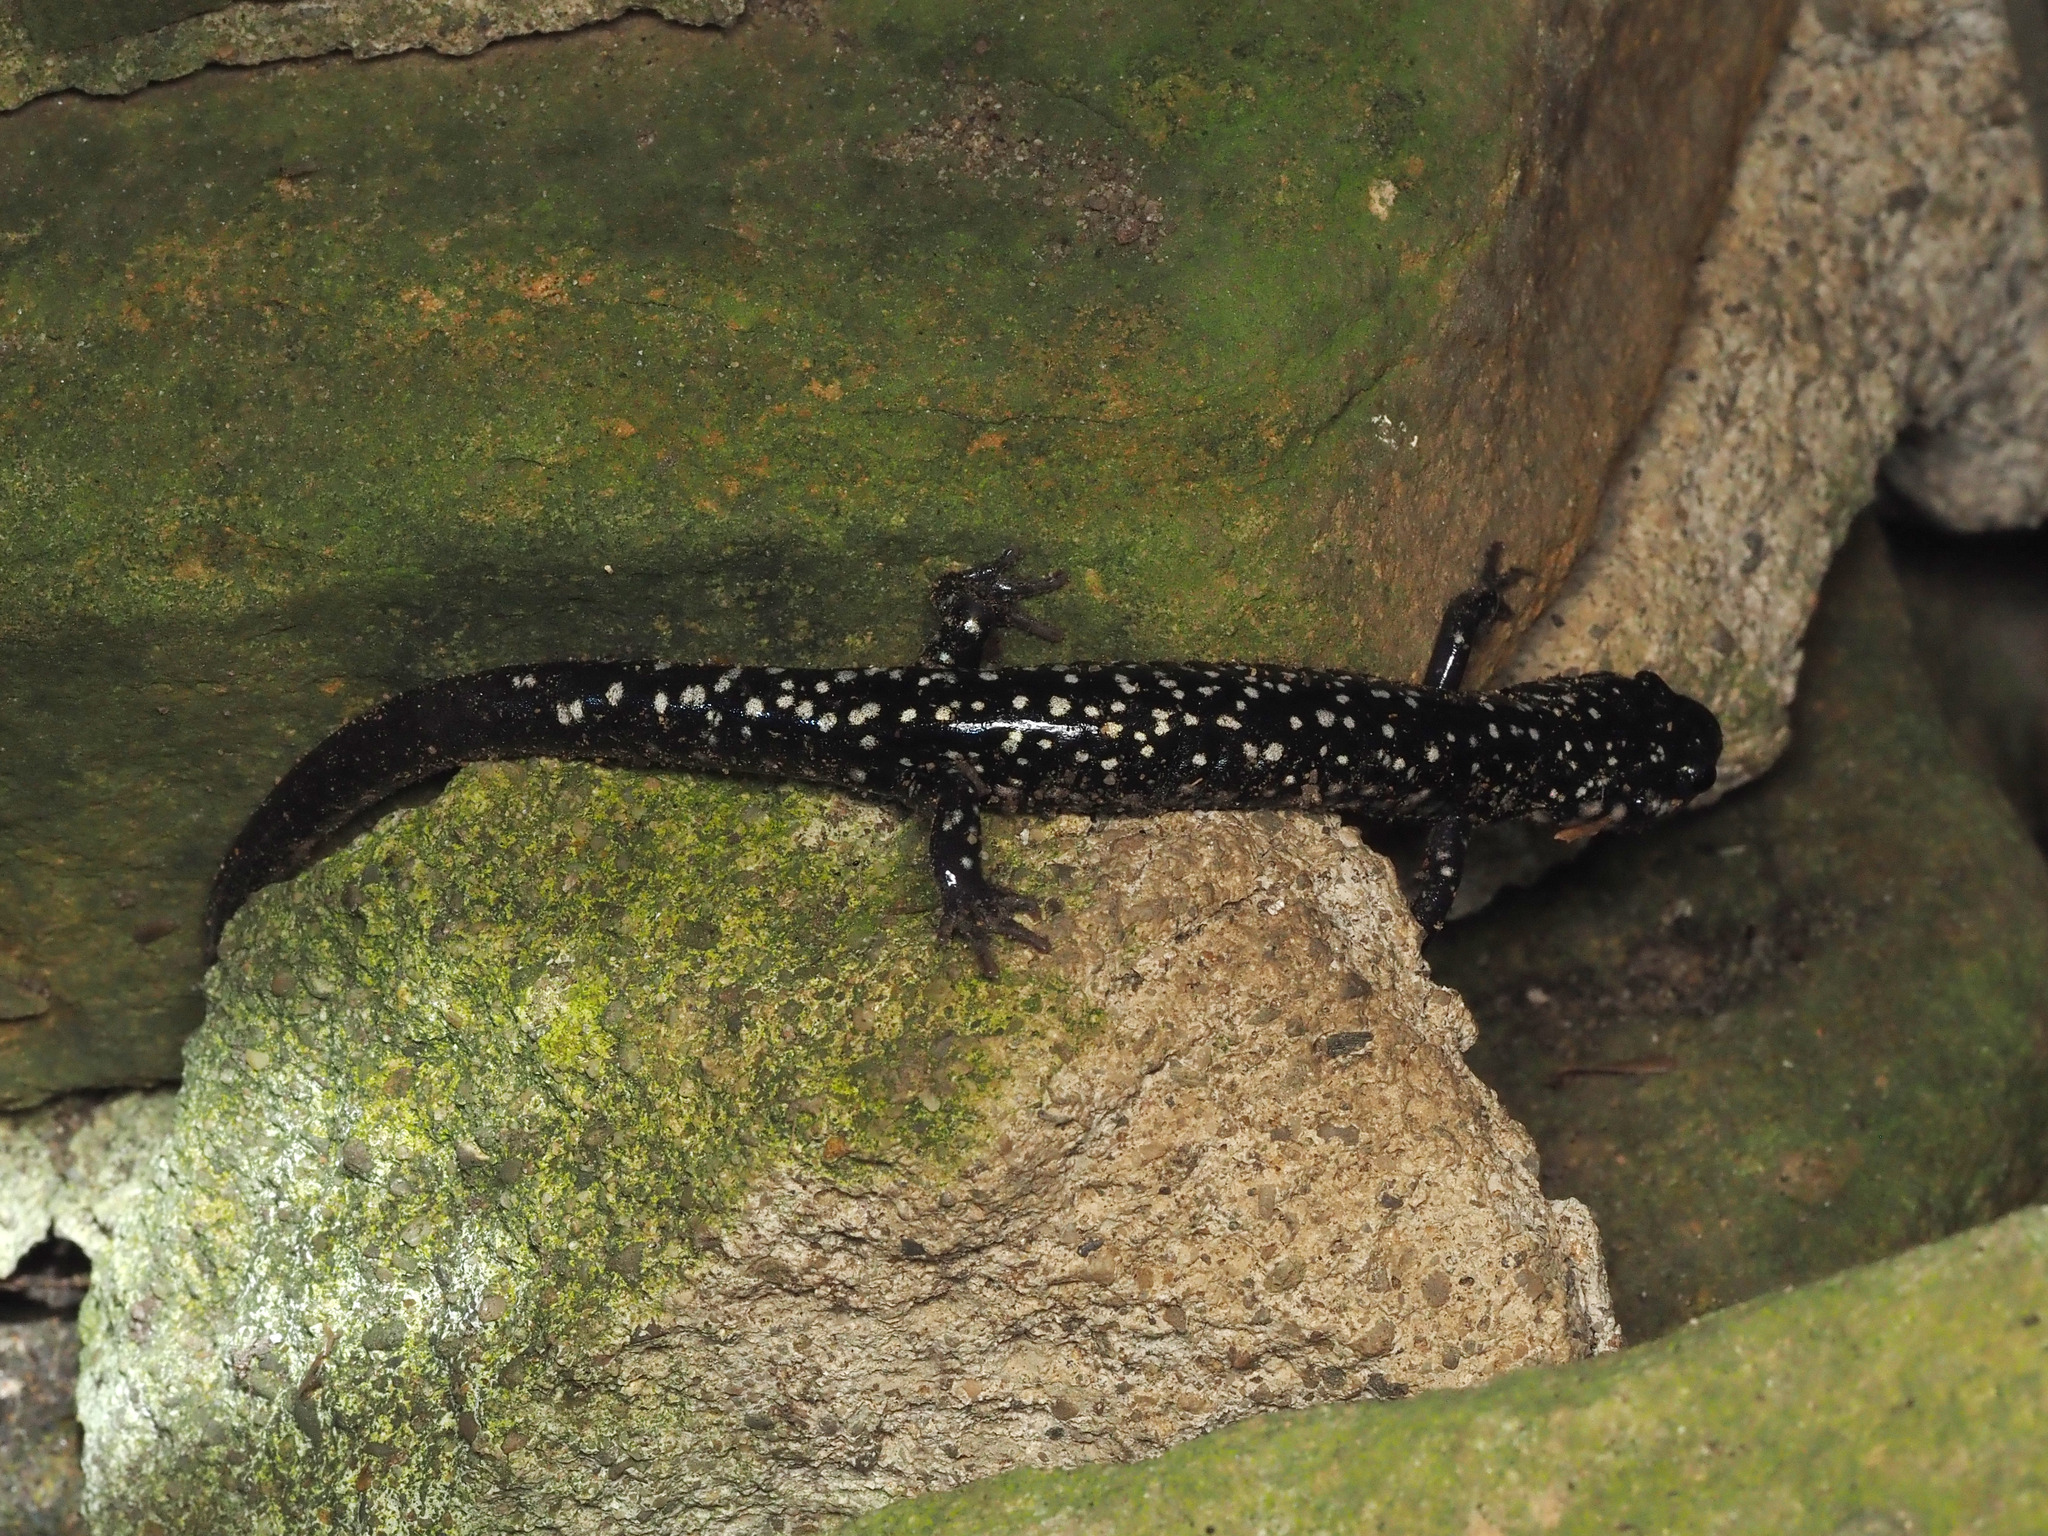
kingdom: Animalia
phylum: Chordata
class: Amphibia
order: Caudata
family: Plethodontidae
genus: Plethodon
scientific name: Plethodon glutinosus
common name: Northern slimy salamander
